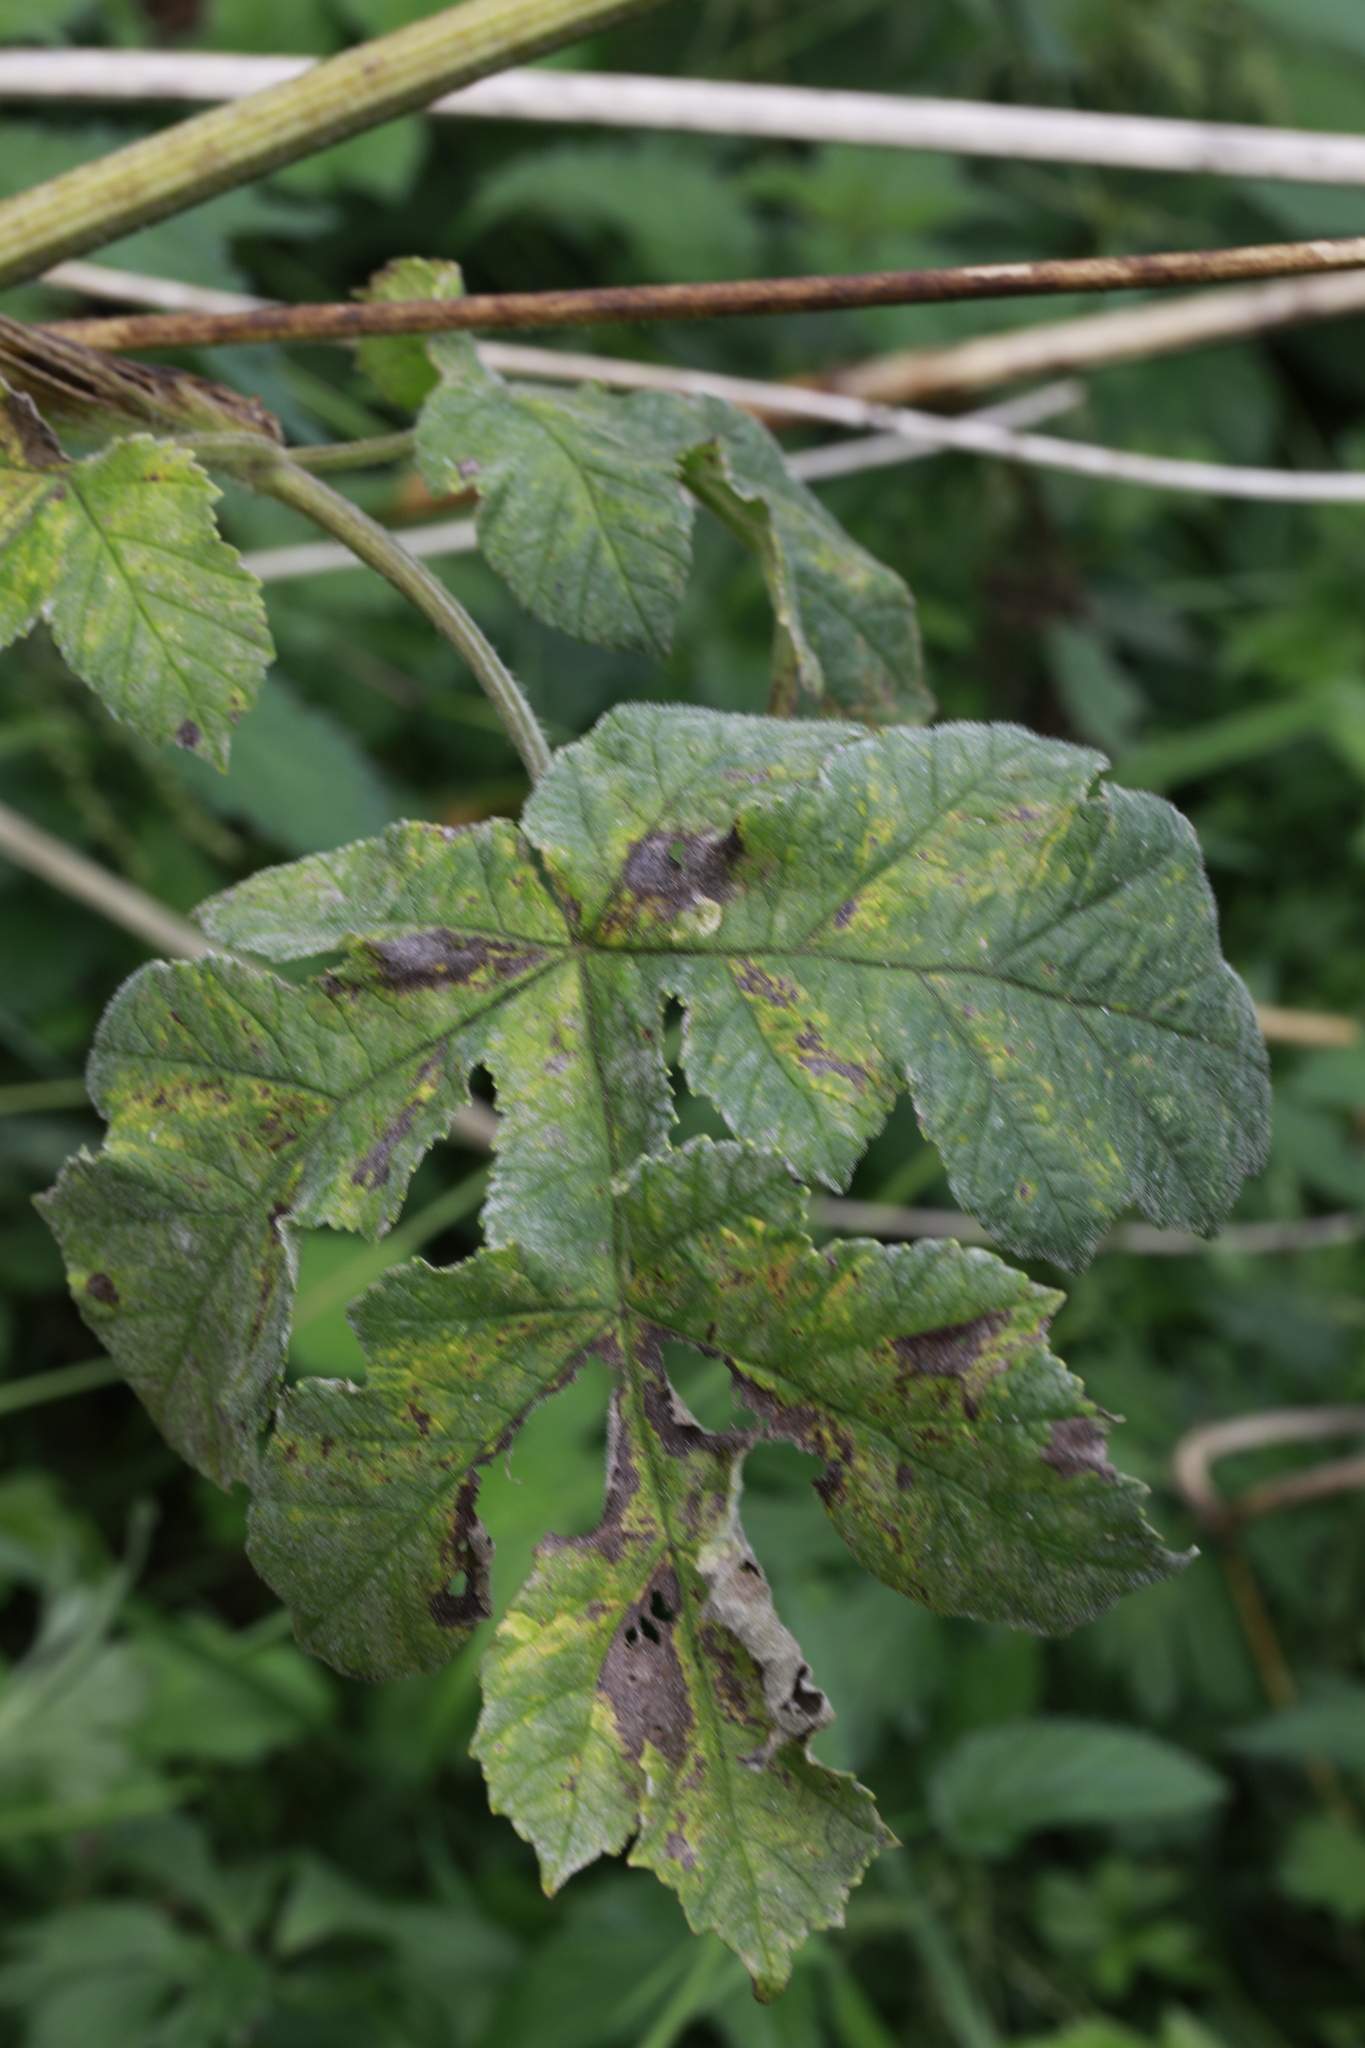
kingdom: Fungi
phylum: Ascomycota
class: Leotiomycetes
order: Helotiales
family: Erysiphaceae
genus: Erysiphe
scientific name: Erysiphe heraclei
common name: Umbellifer mildew
